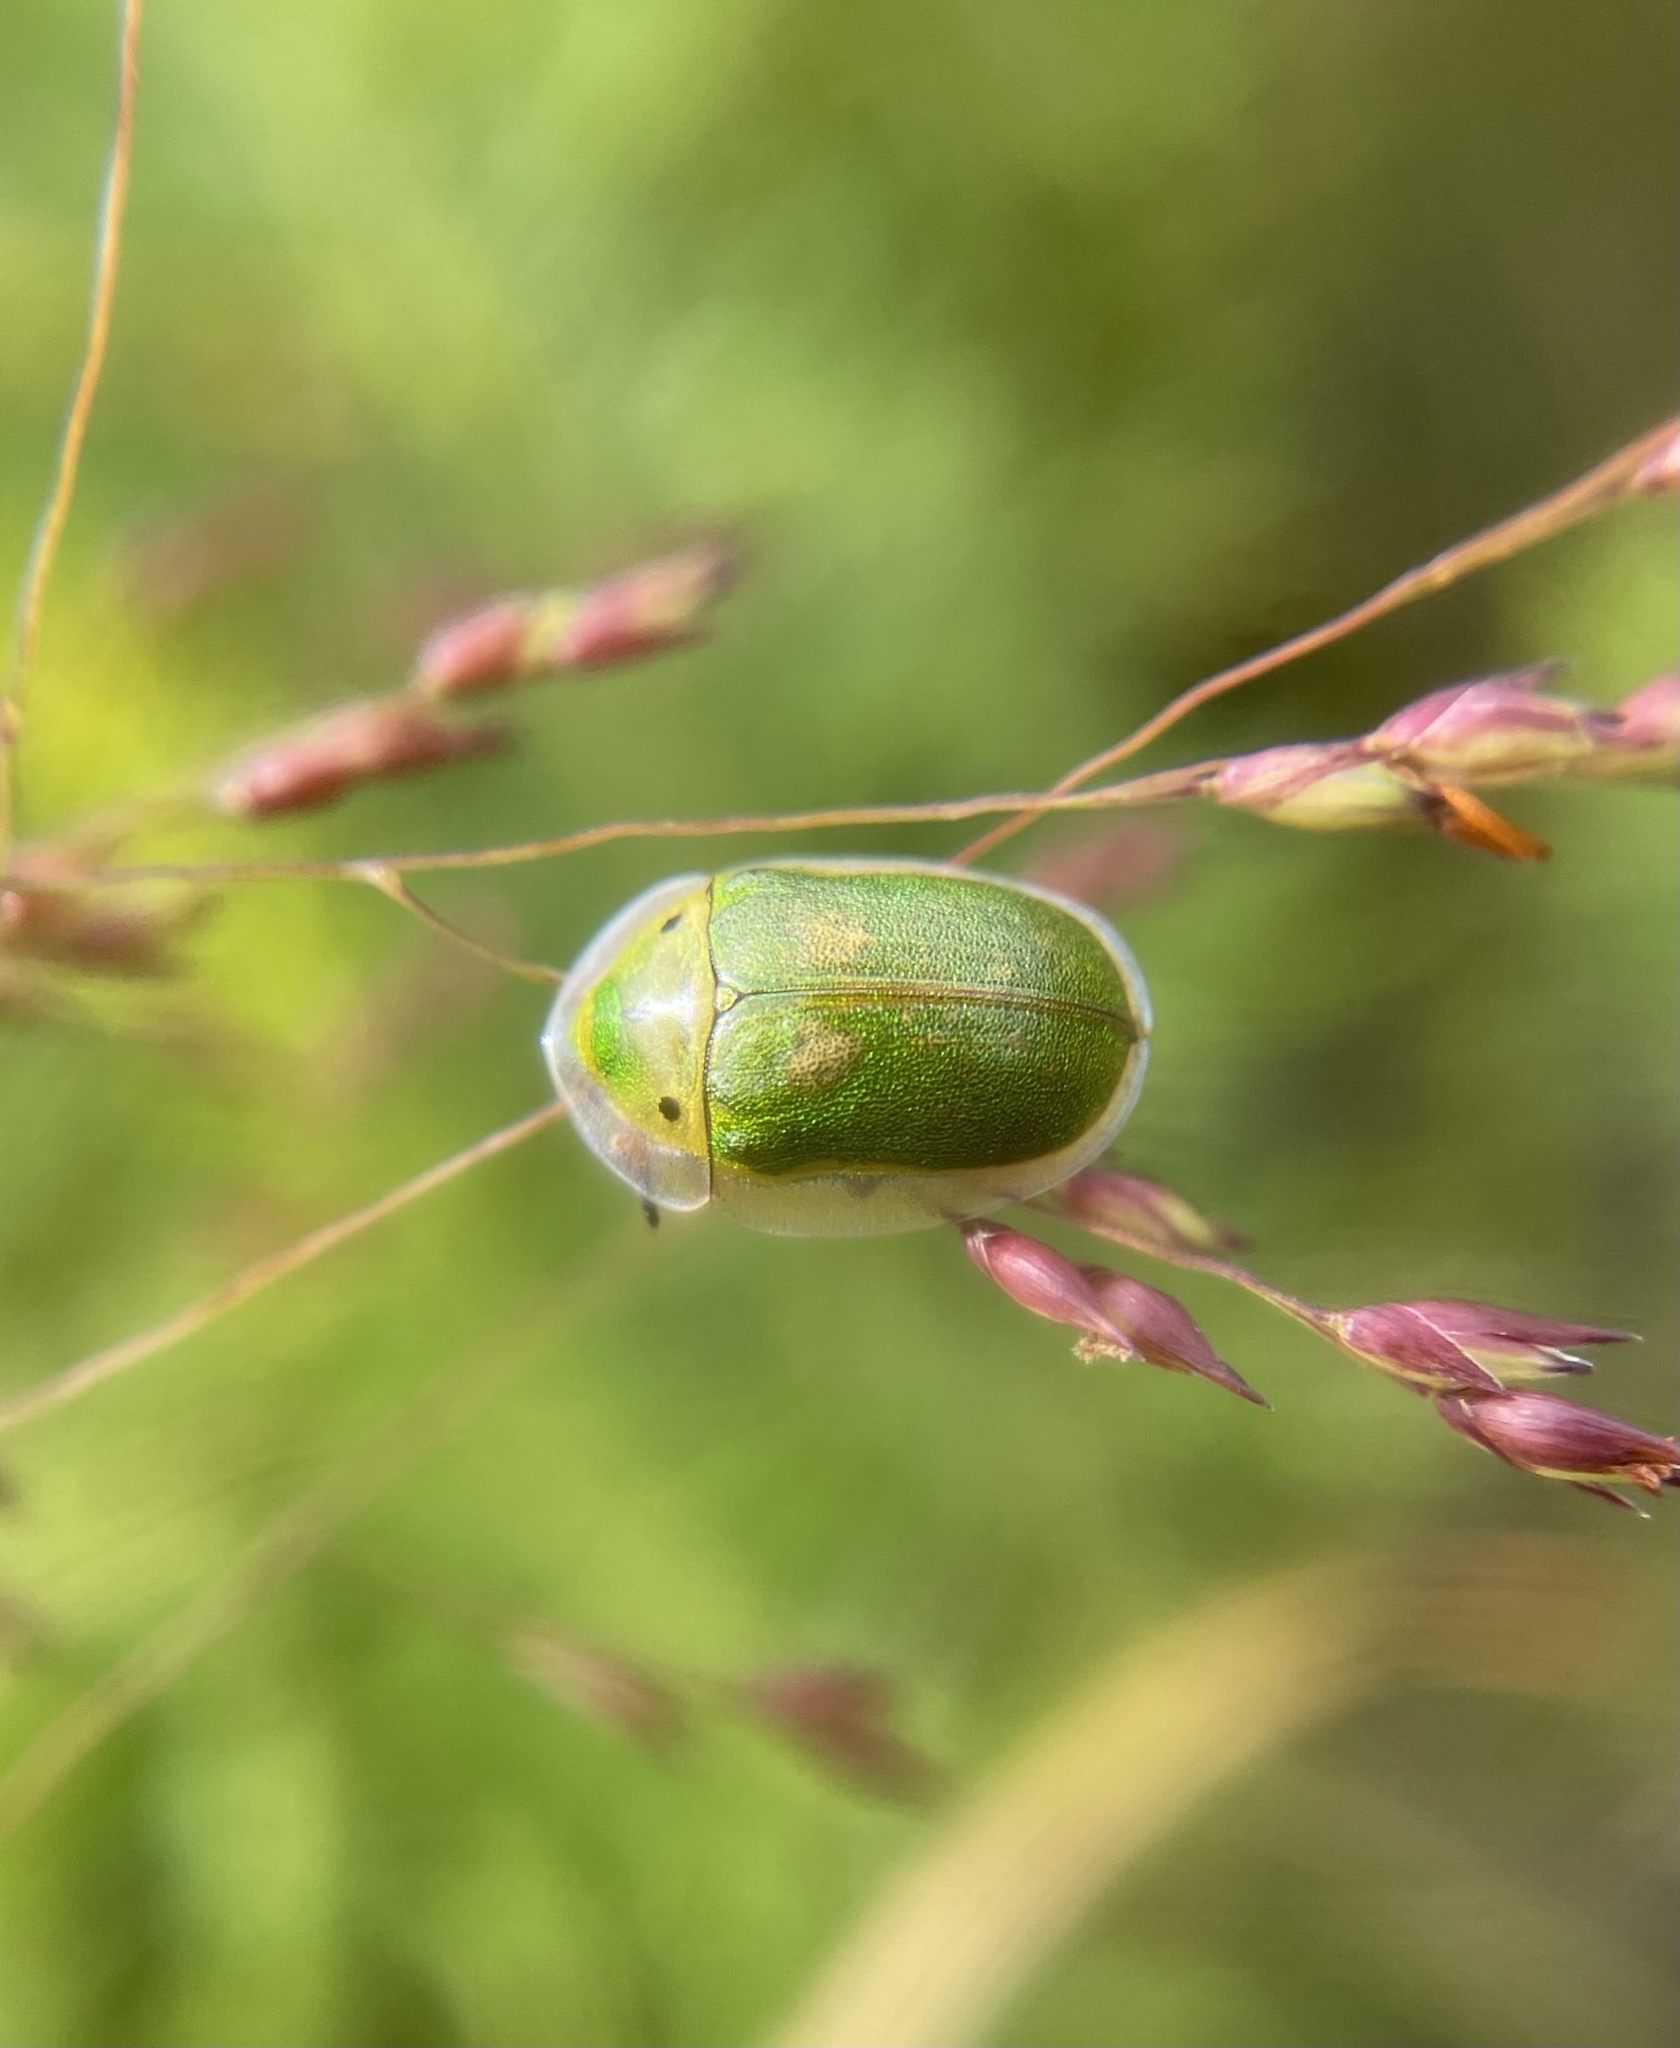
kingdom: Animalia
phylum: Arthropoda
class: Insecta
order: Coleoptera
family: Chrysomelidae
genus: Physonota
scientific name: Physonota helianthi
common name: Sunflower tortoise beetle
